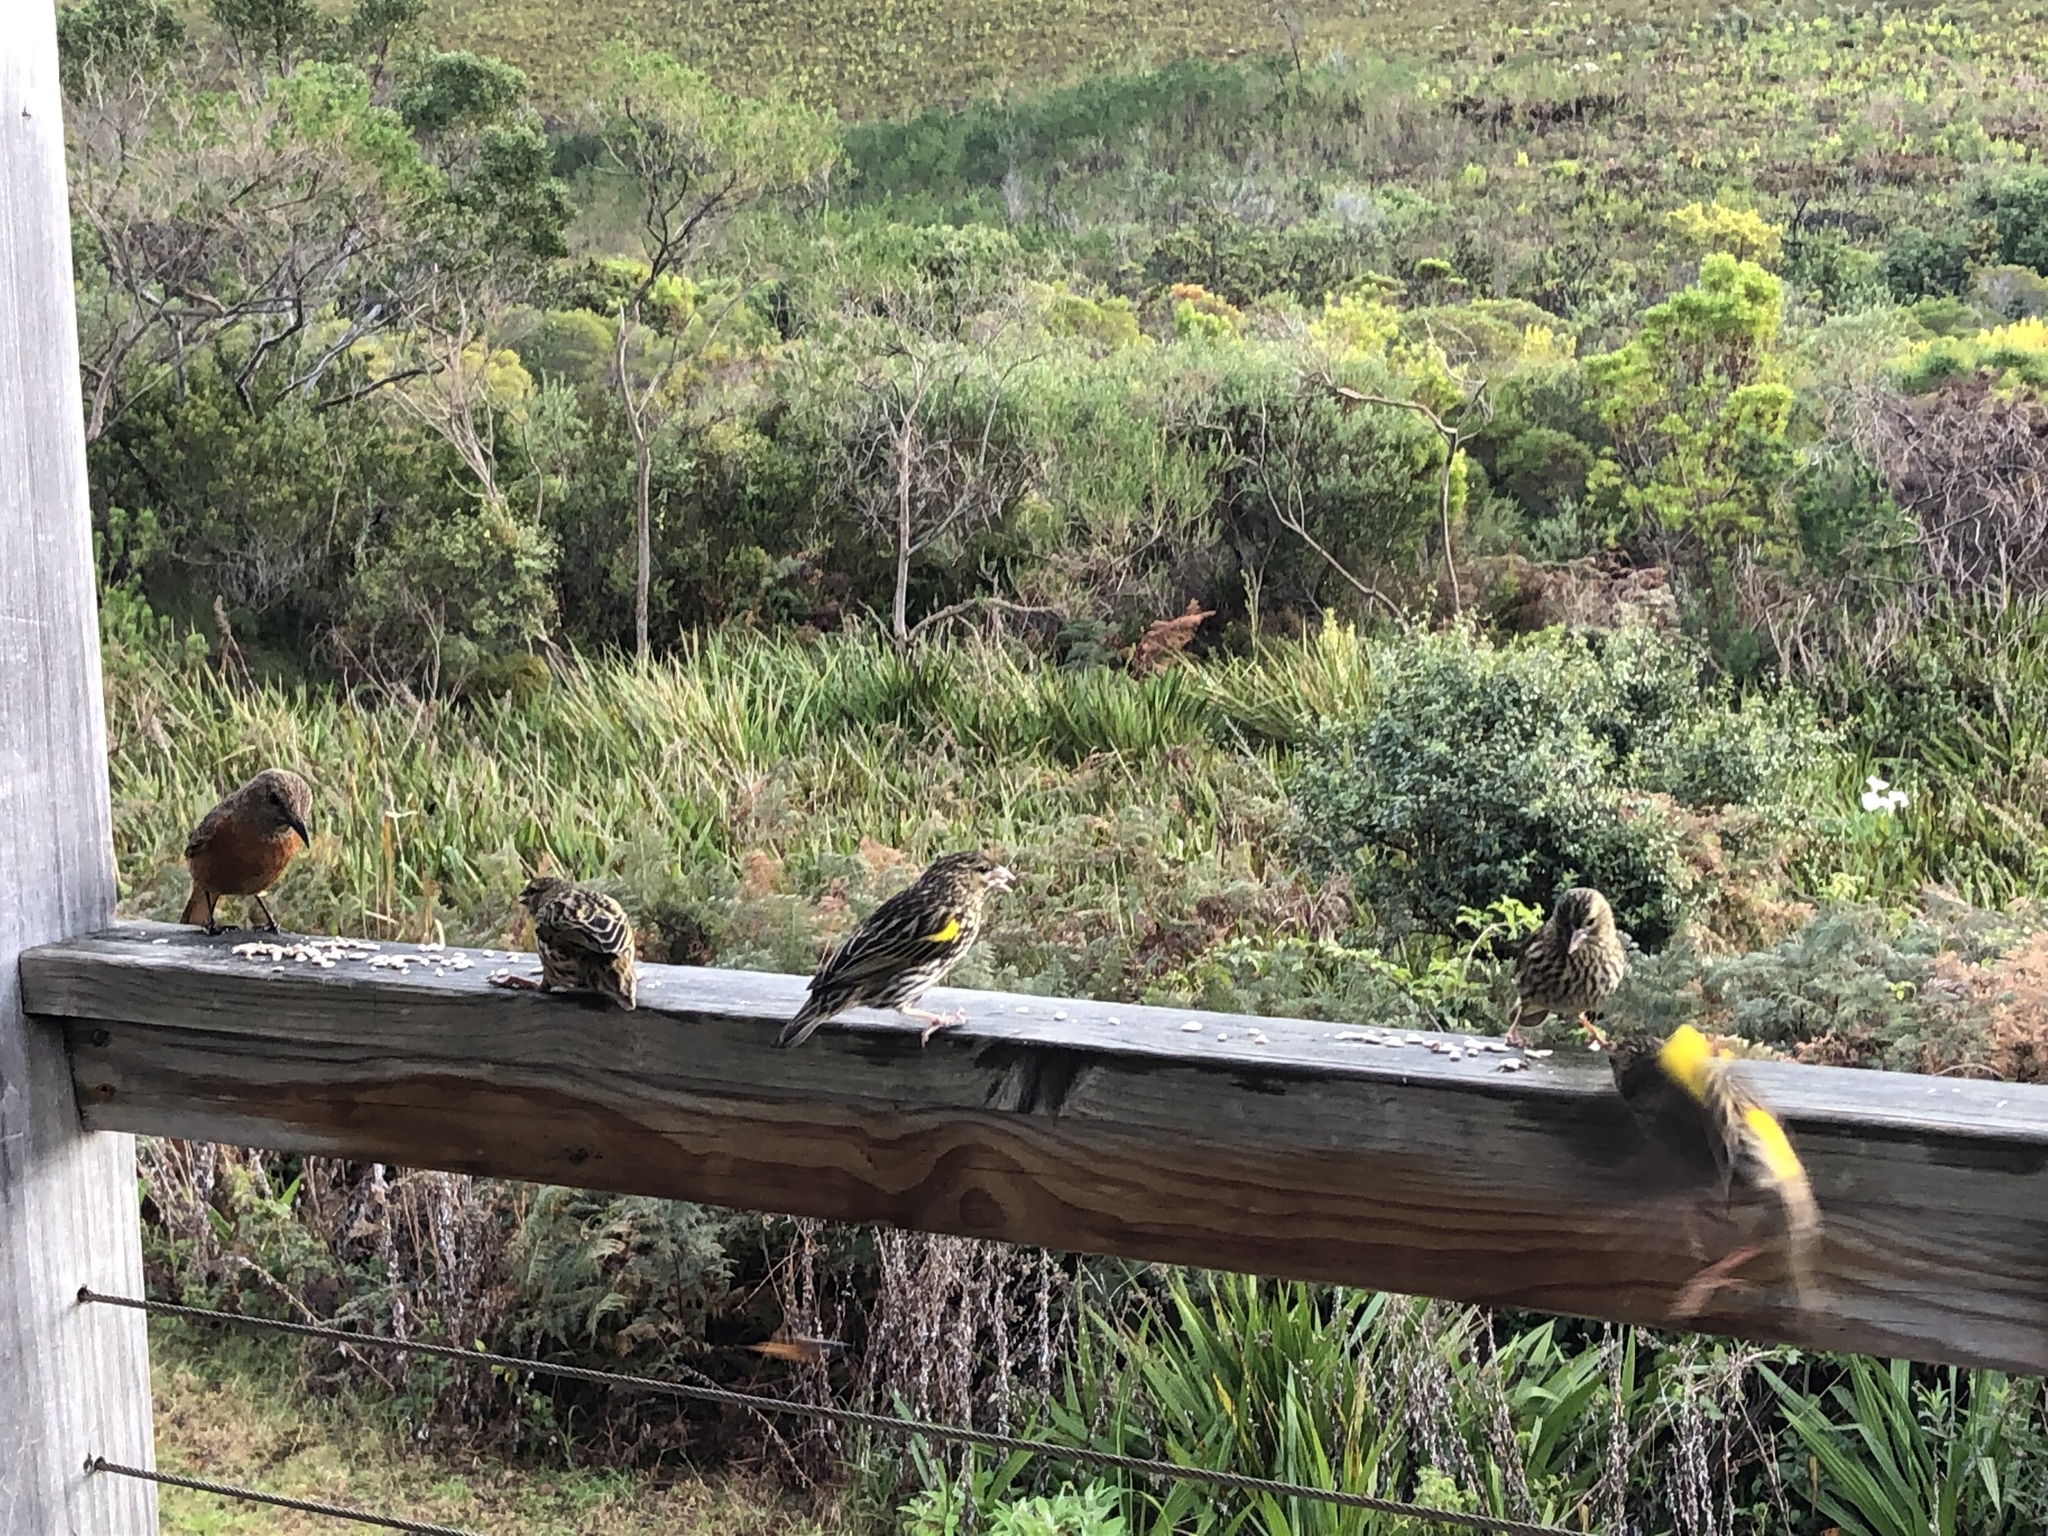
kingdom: Animalia
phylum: Chordata
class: Aves
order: Passeriformes
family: Muscicapidae
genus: Monticola
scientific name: Monticola rupestris
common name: Cape rock thrush
